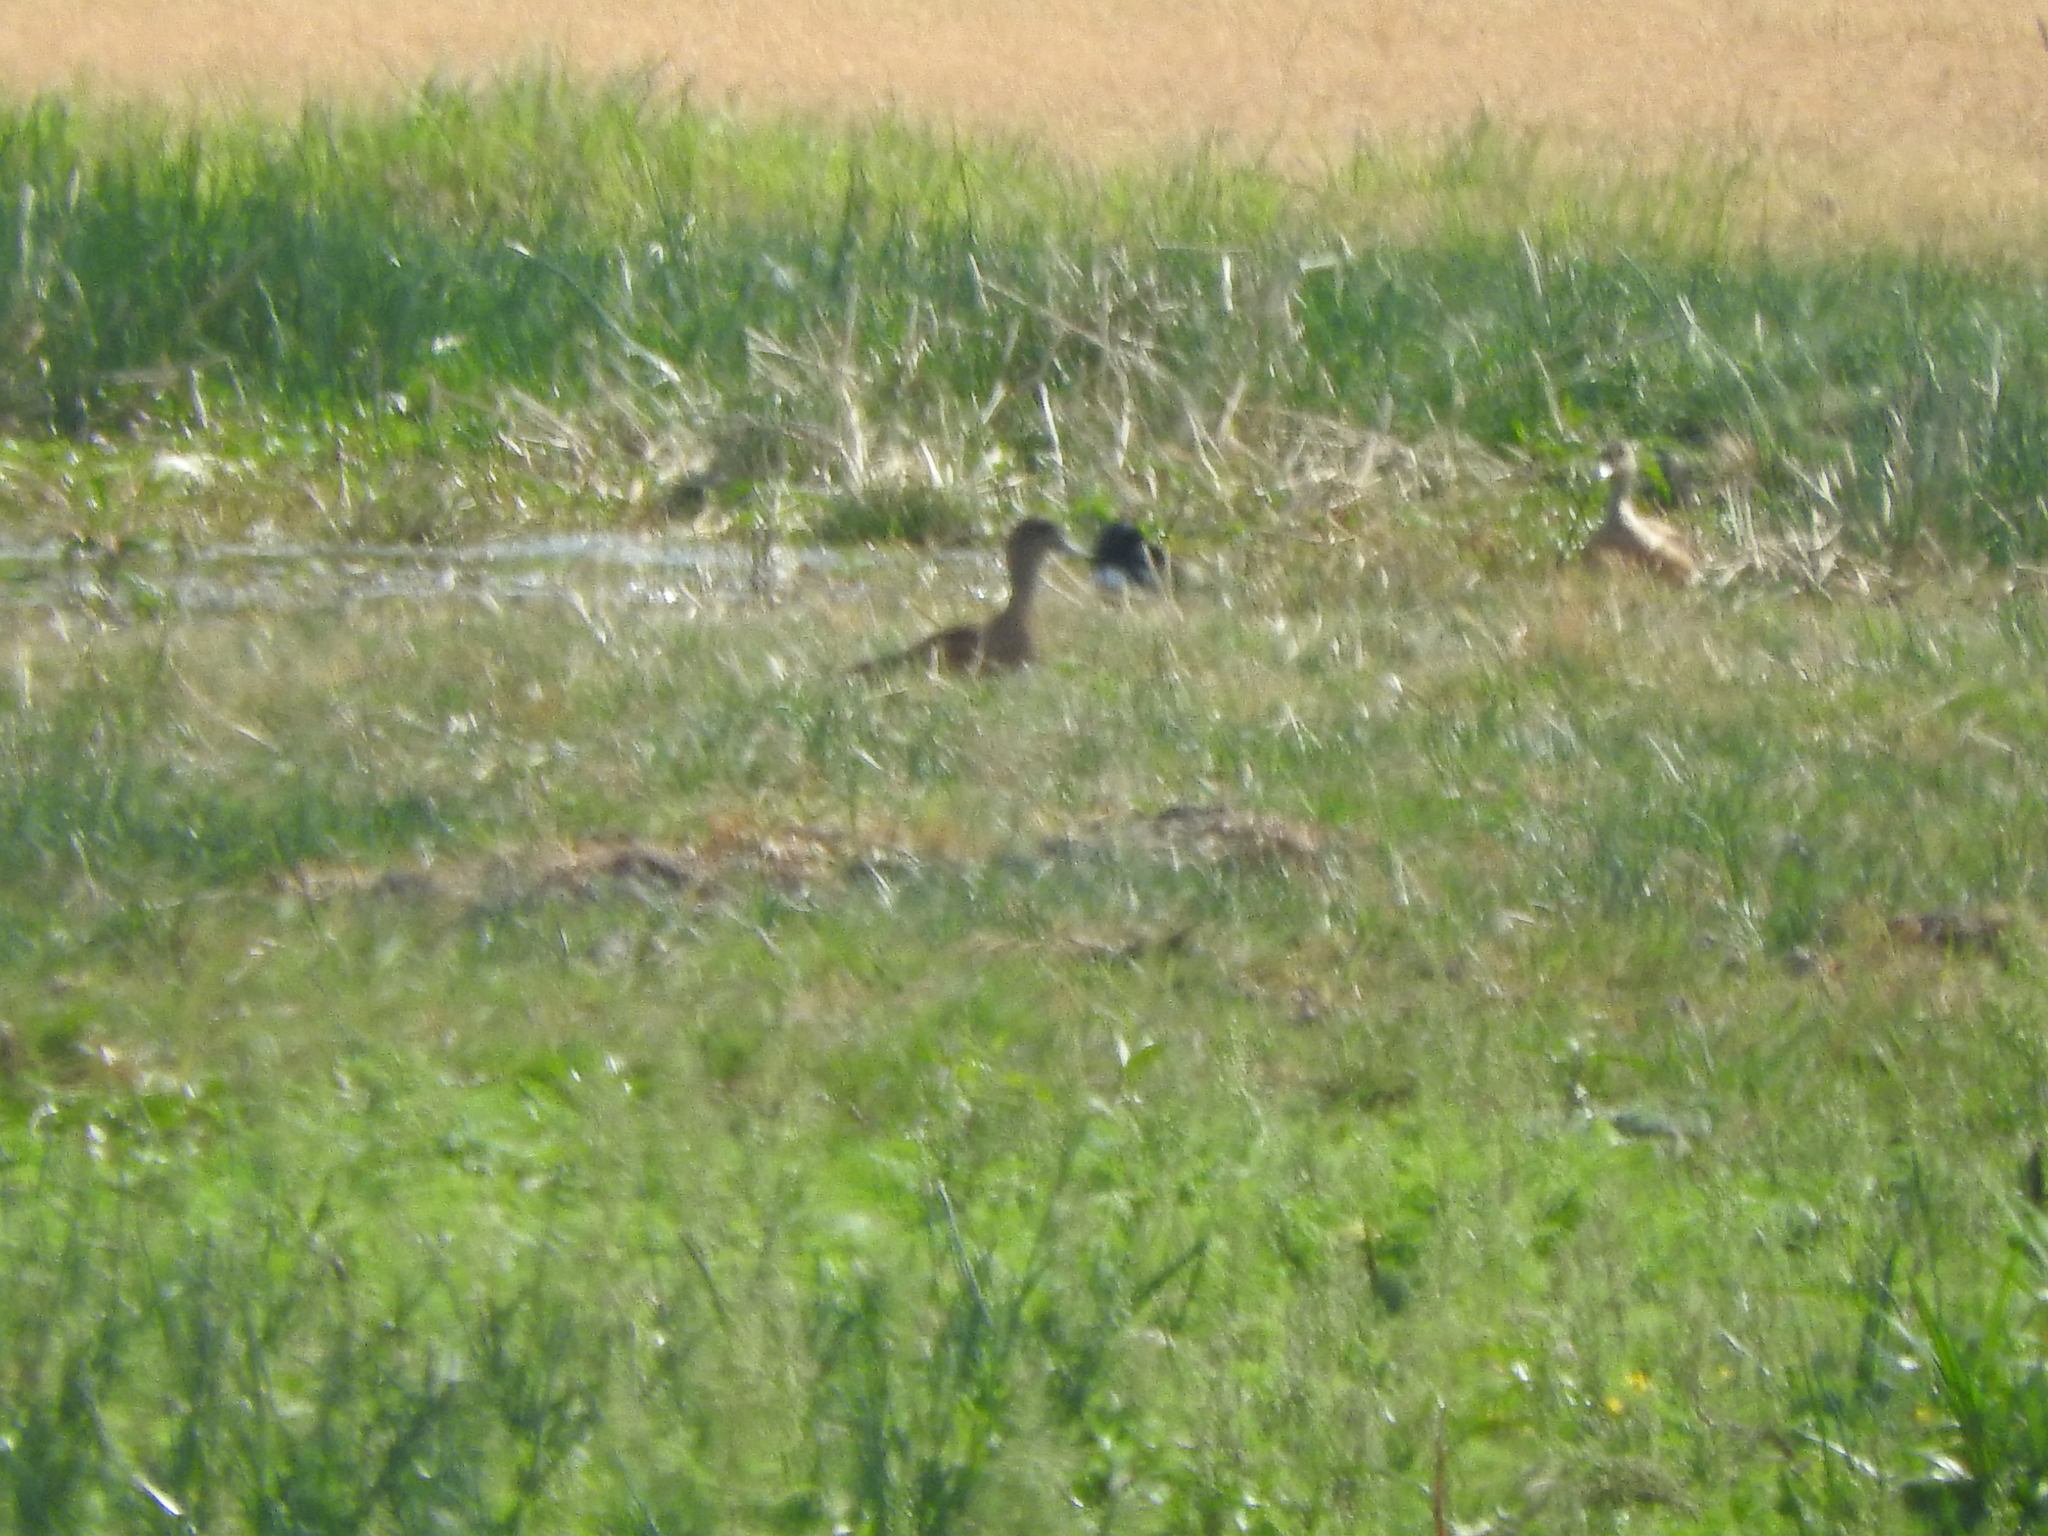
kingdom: Animalia
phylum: Chordata
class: Aves
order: Anseriformes
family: Anatidae
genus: Mareca
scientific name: Mareca strepera
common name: Gadwall
